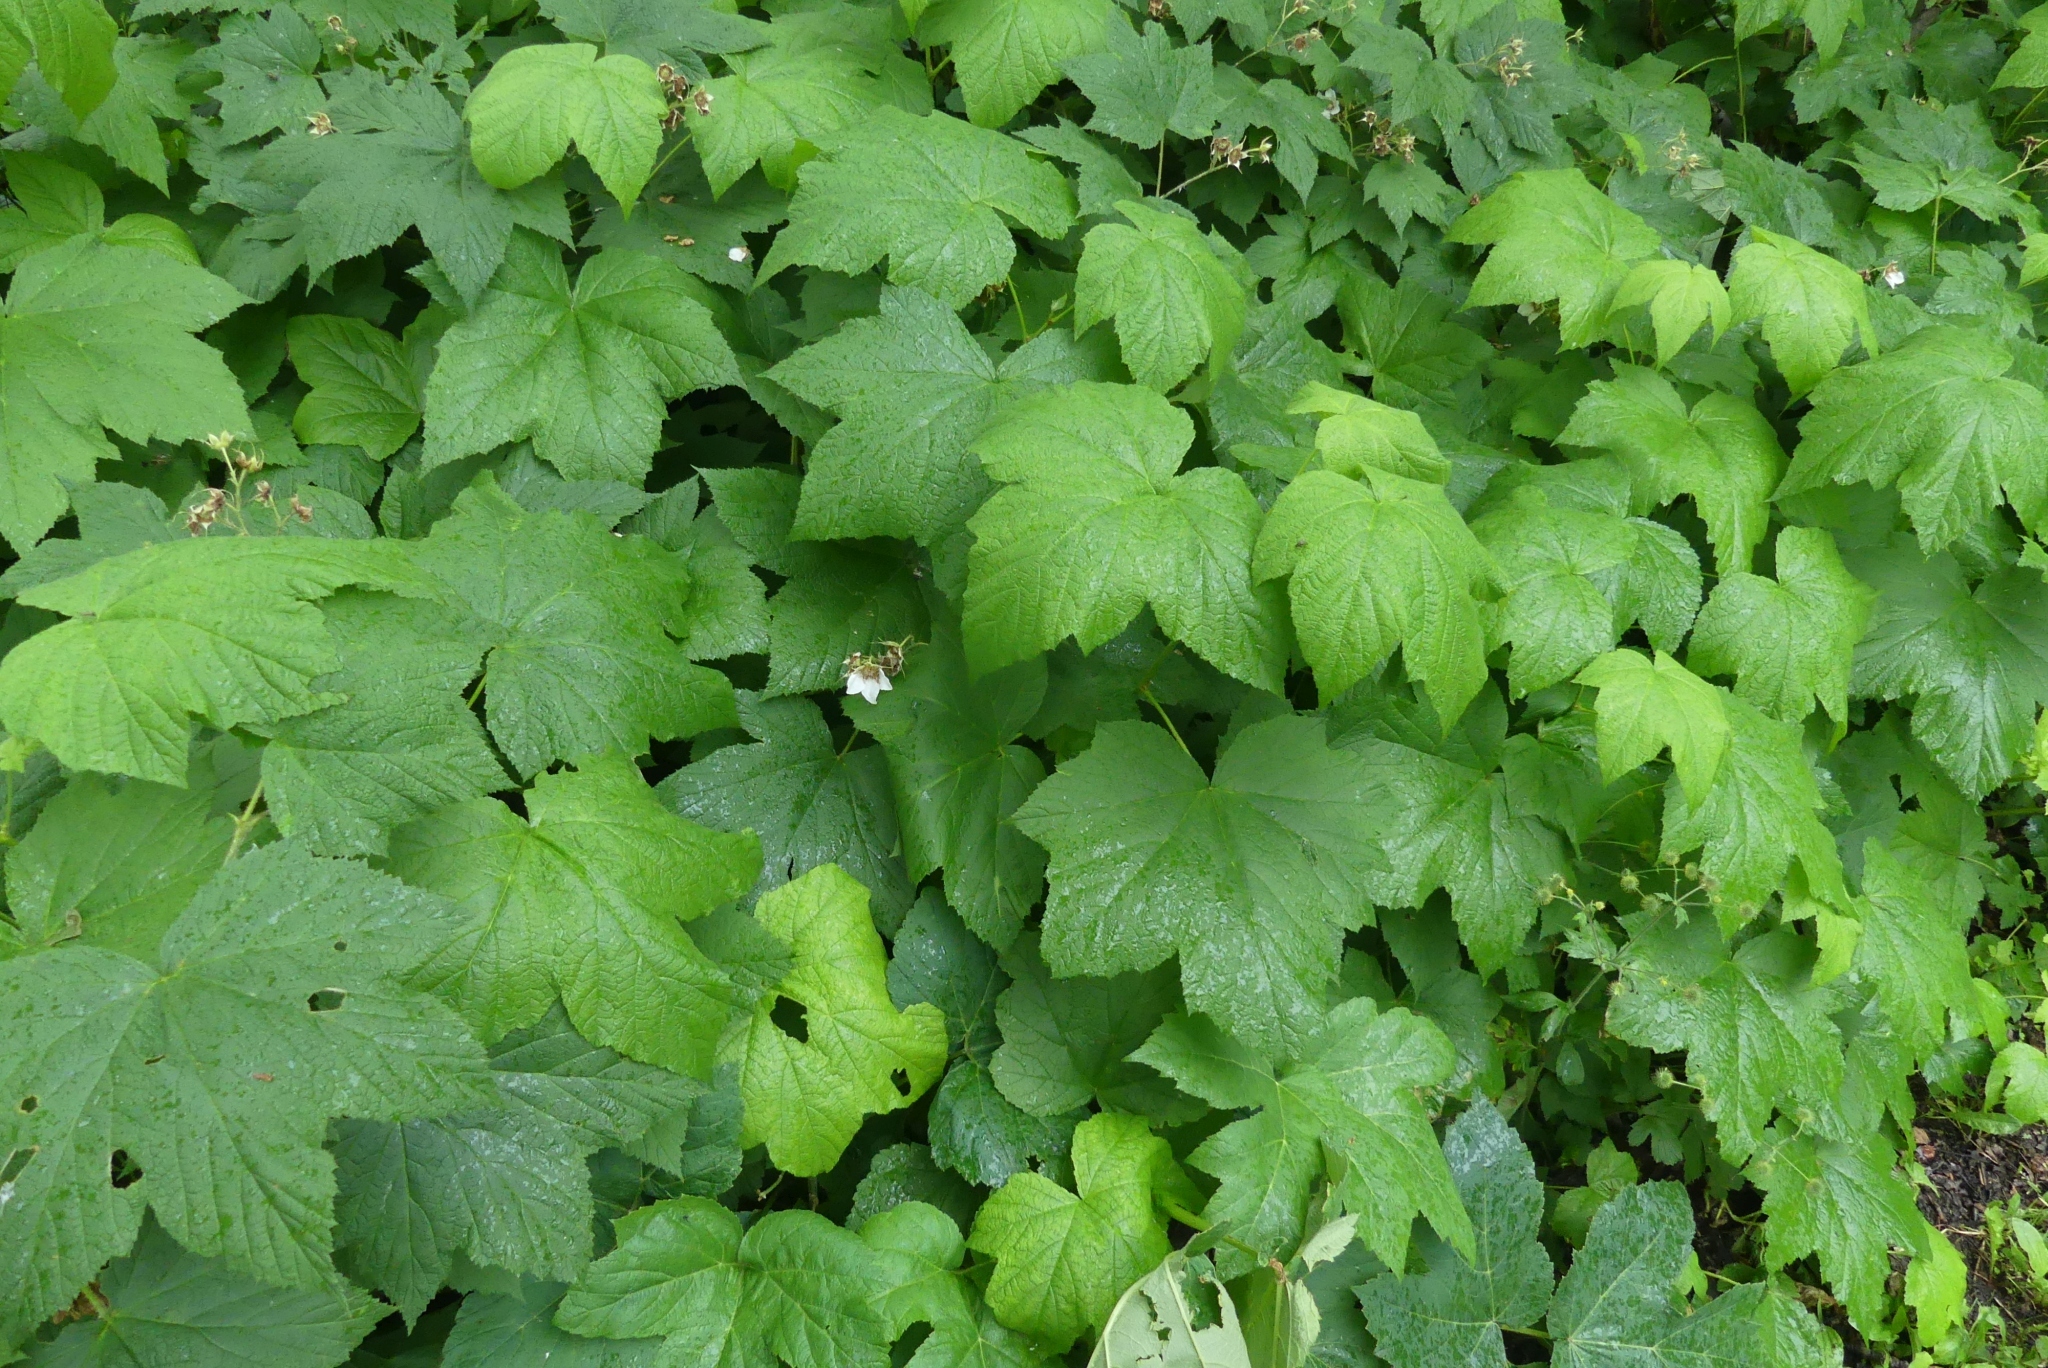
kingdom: Plantae
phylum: Tracheophyta
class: Magnoliopsida
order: Rosales
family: Rosaceae
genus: Rubus
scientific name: Rubus parviflorus
